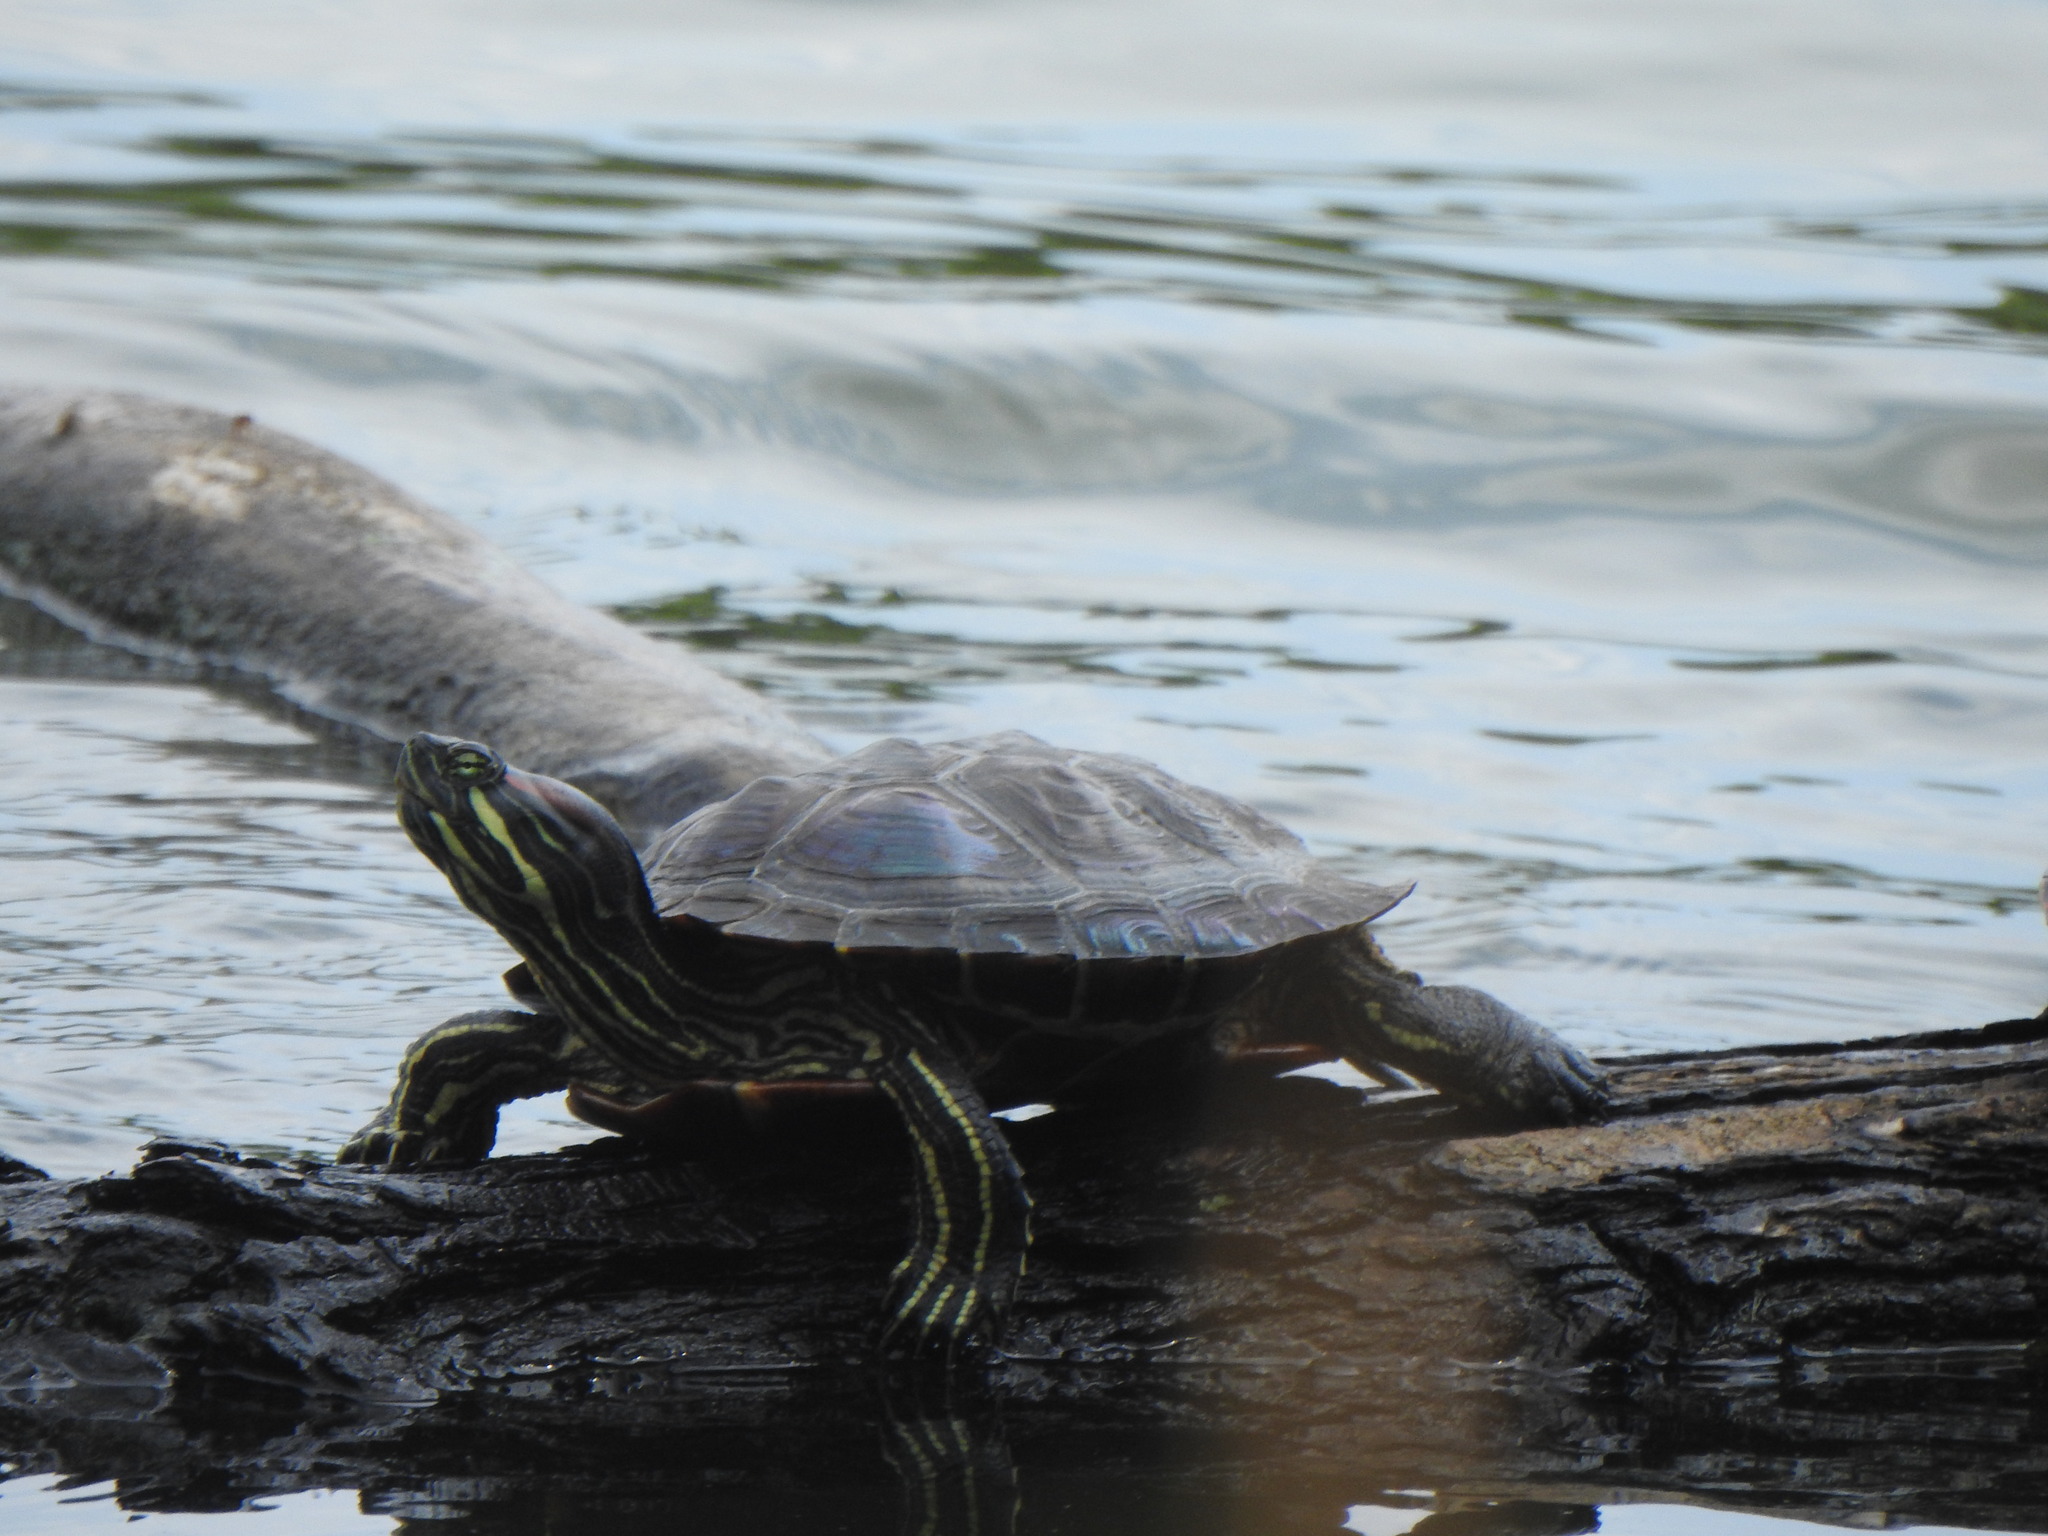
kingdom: Animalia
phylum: Chordata
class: Testudines
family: Emydidae
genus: Trachemys
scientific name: Trachemys scripta
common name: Slider
